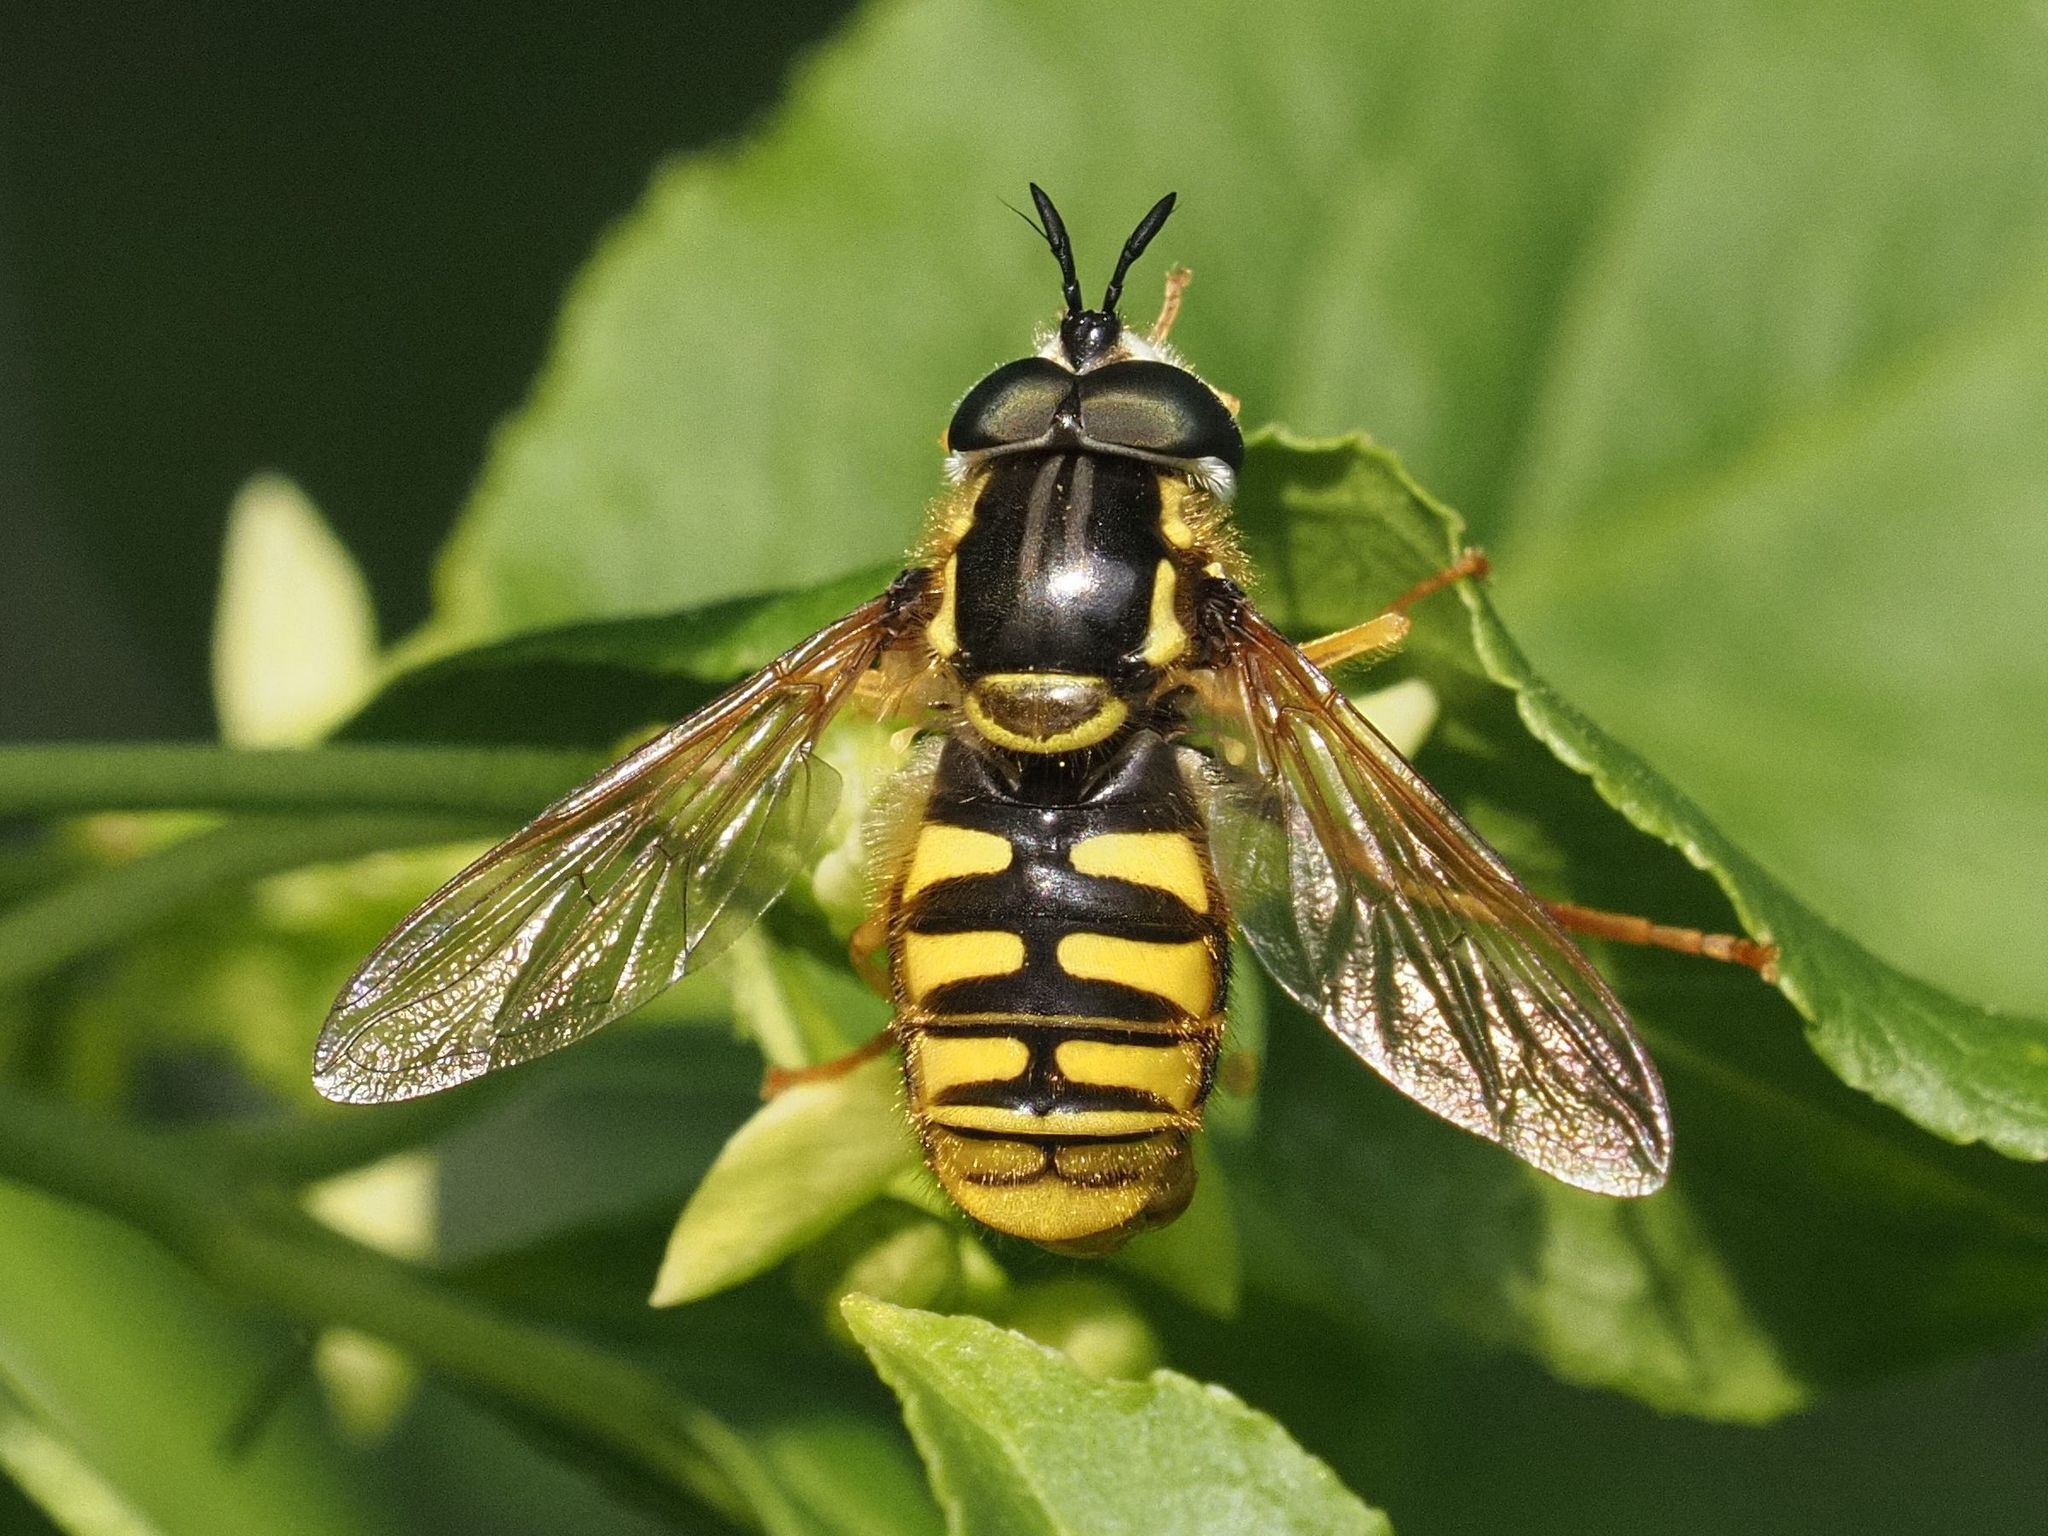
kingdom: Animalia
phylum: Arthropoda
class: Insecta
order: Diptera
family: Syrphidae
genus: Chrysotoxum
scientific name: Chrysotoxum cautum
